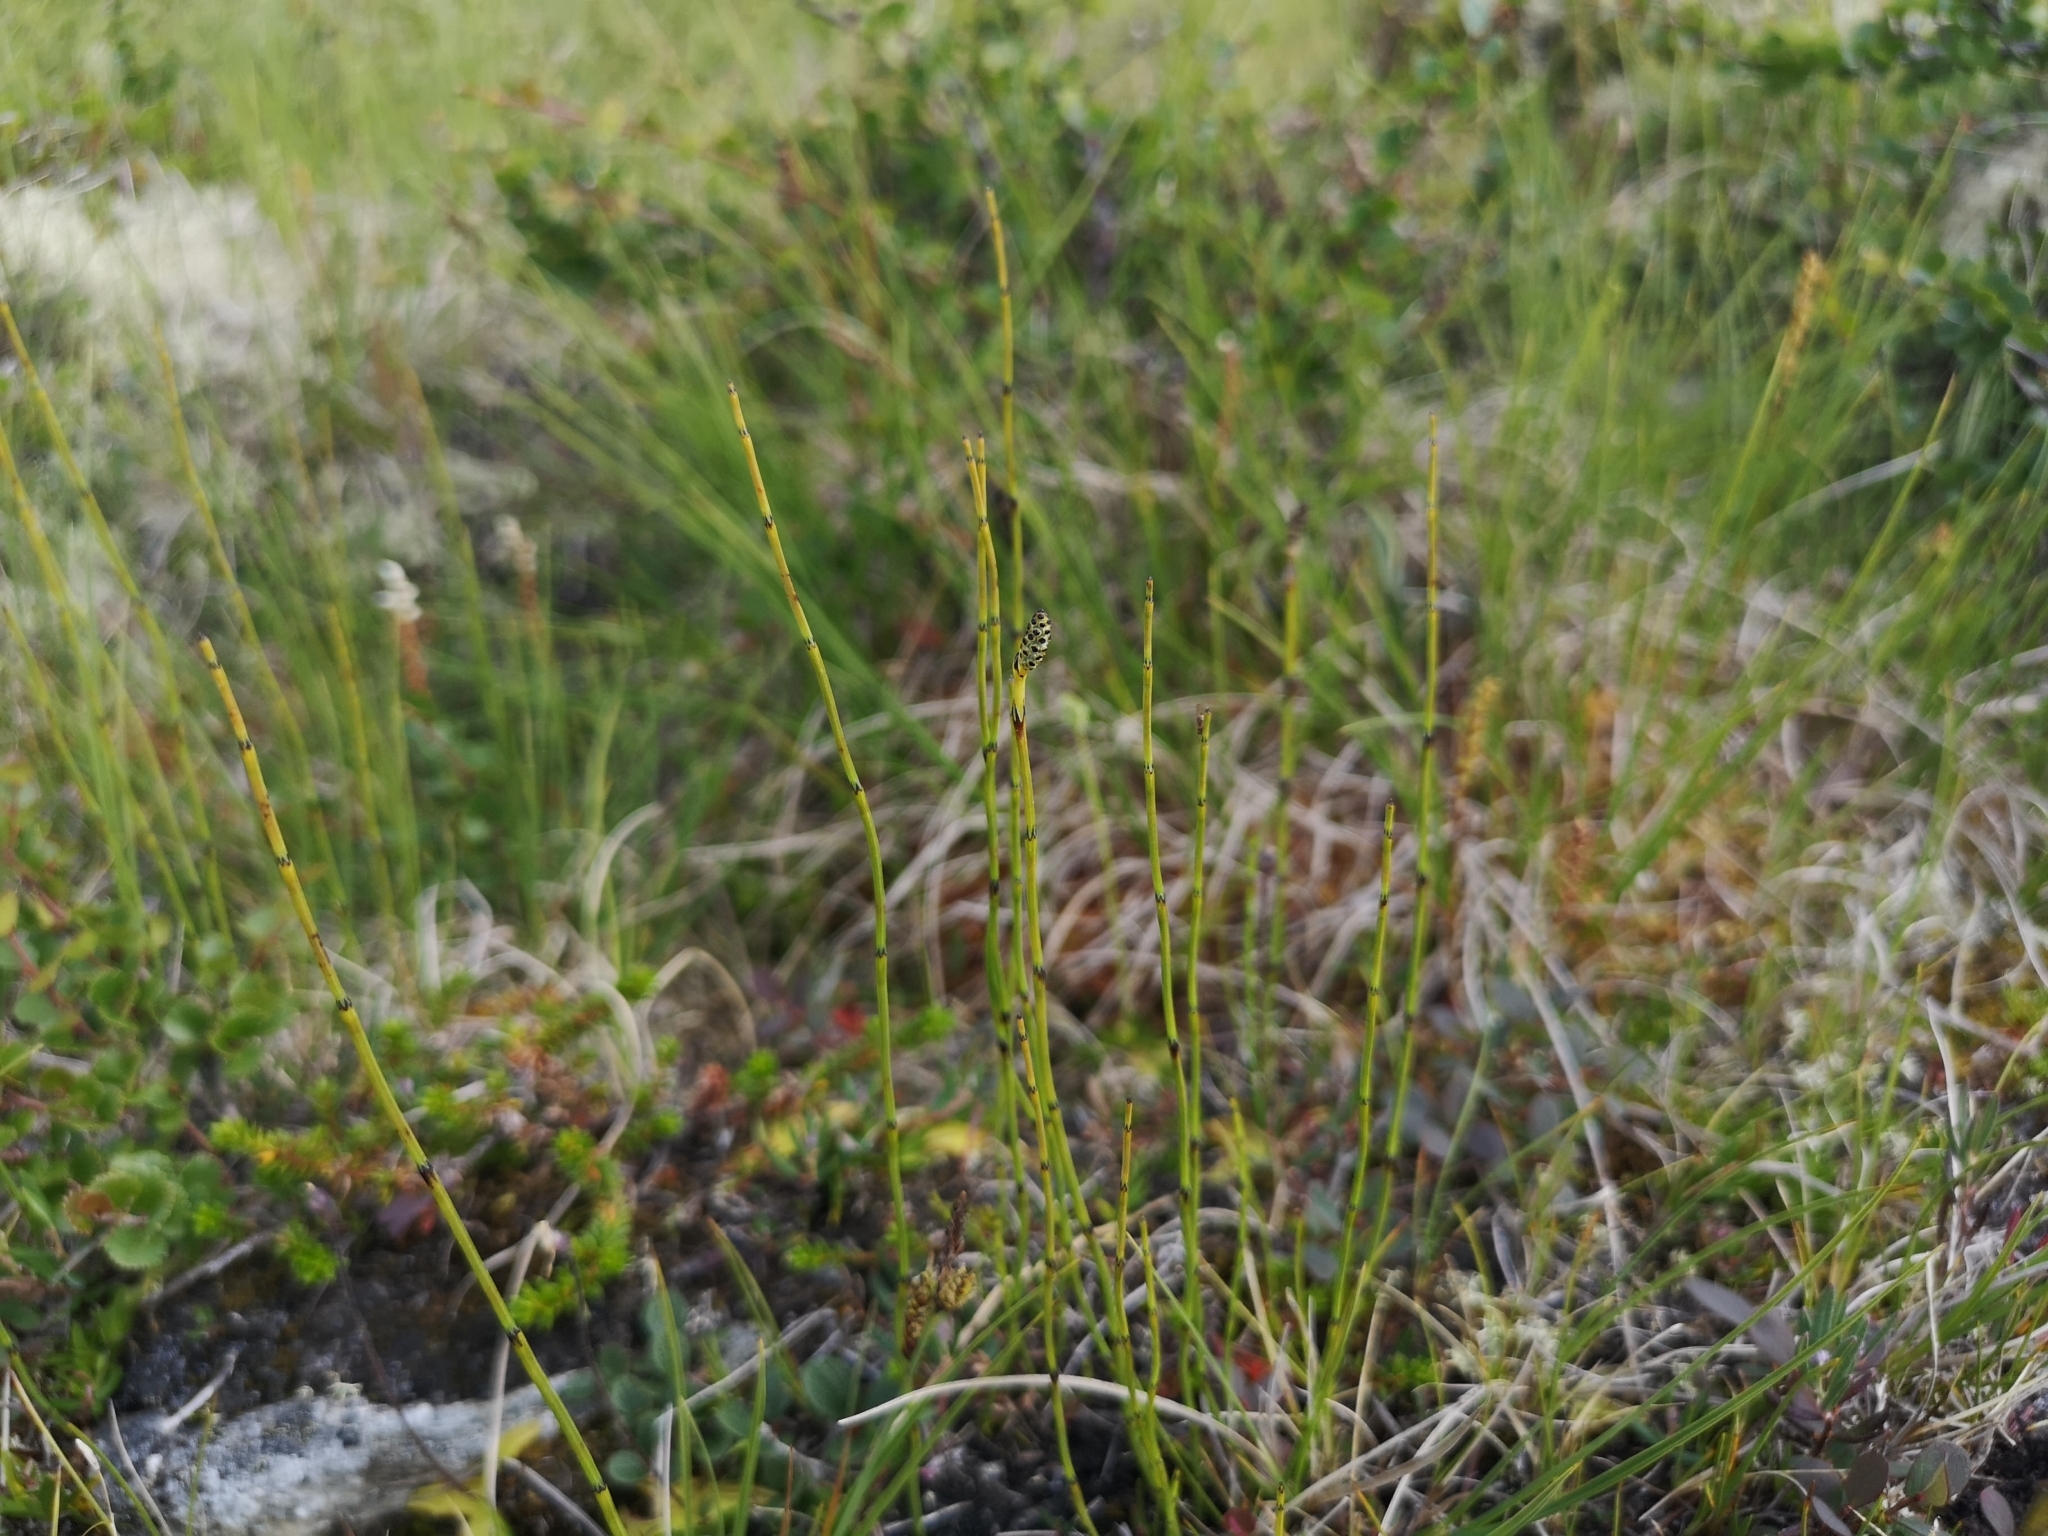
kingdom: Plantae
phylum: Tracheophyta
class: Polypodiopsida
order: Equisetales
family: Equisetaceae
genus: Equisetum
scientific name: Equisetum variegatum
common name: Variegated horsetail
